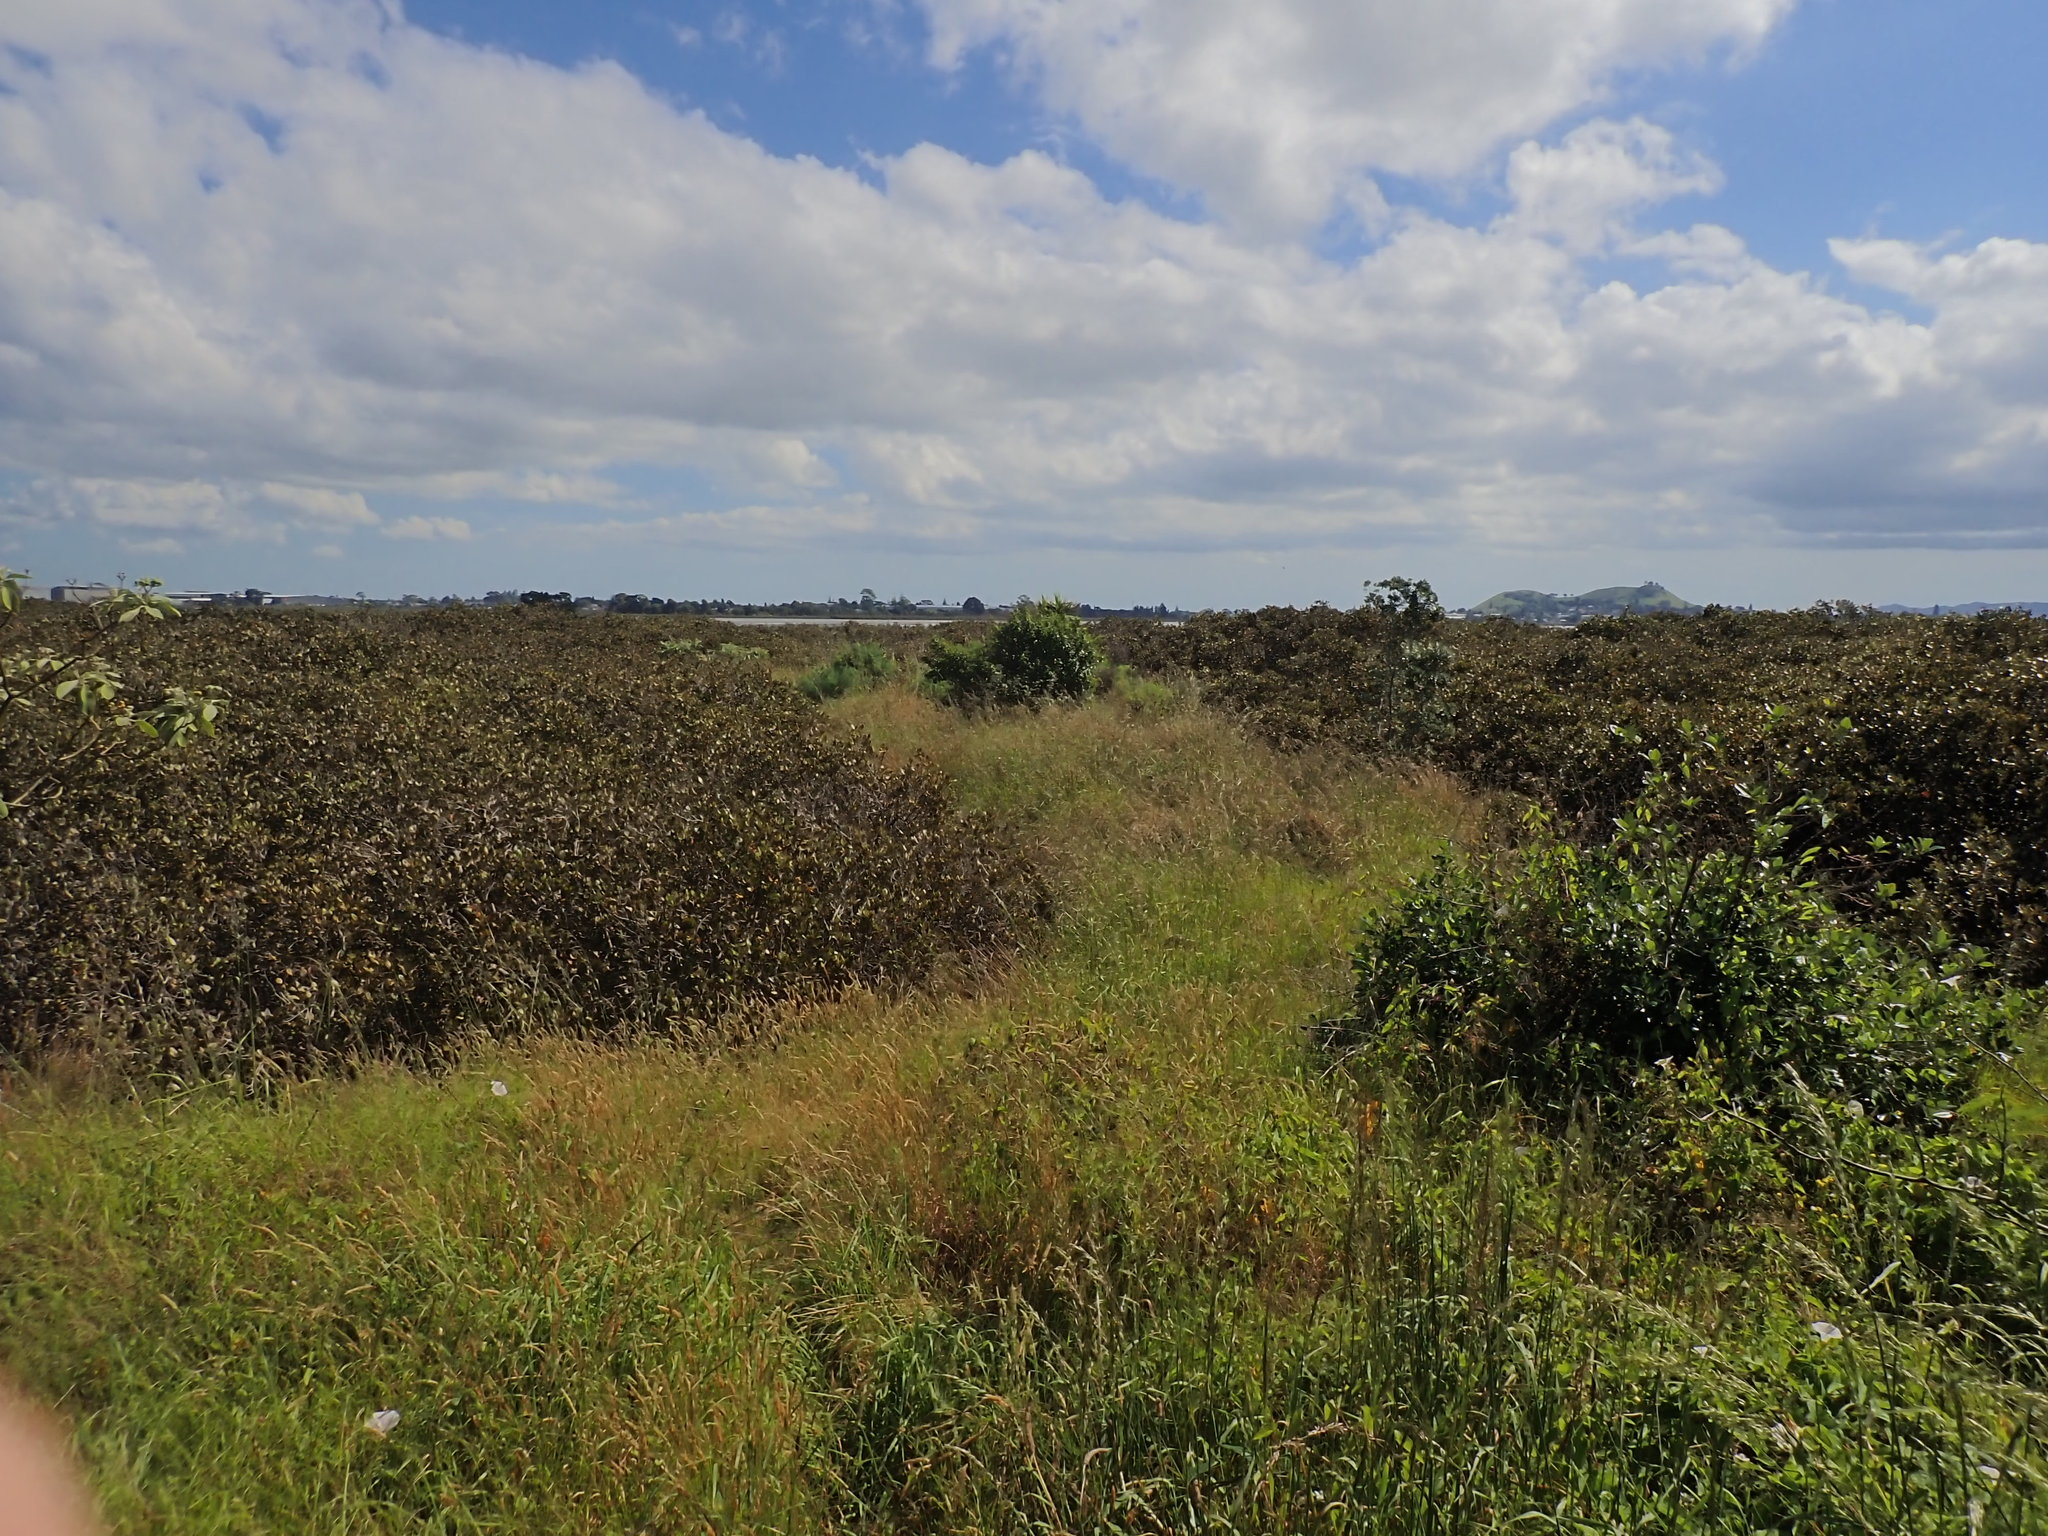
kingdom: Plantae
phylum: Tracheophyta
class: Magnoliopsida
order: Lamiales
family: Acanthaceae
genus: Avicennia
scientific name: Avicennia marina
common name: Gray mangrove
